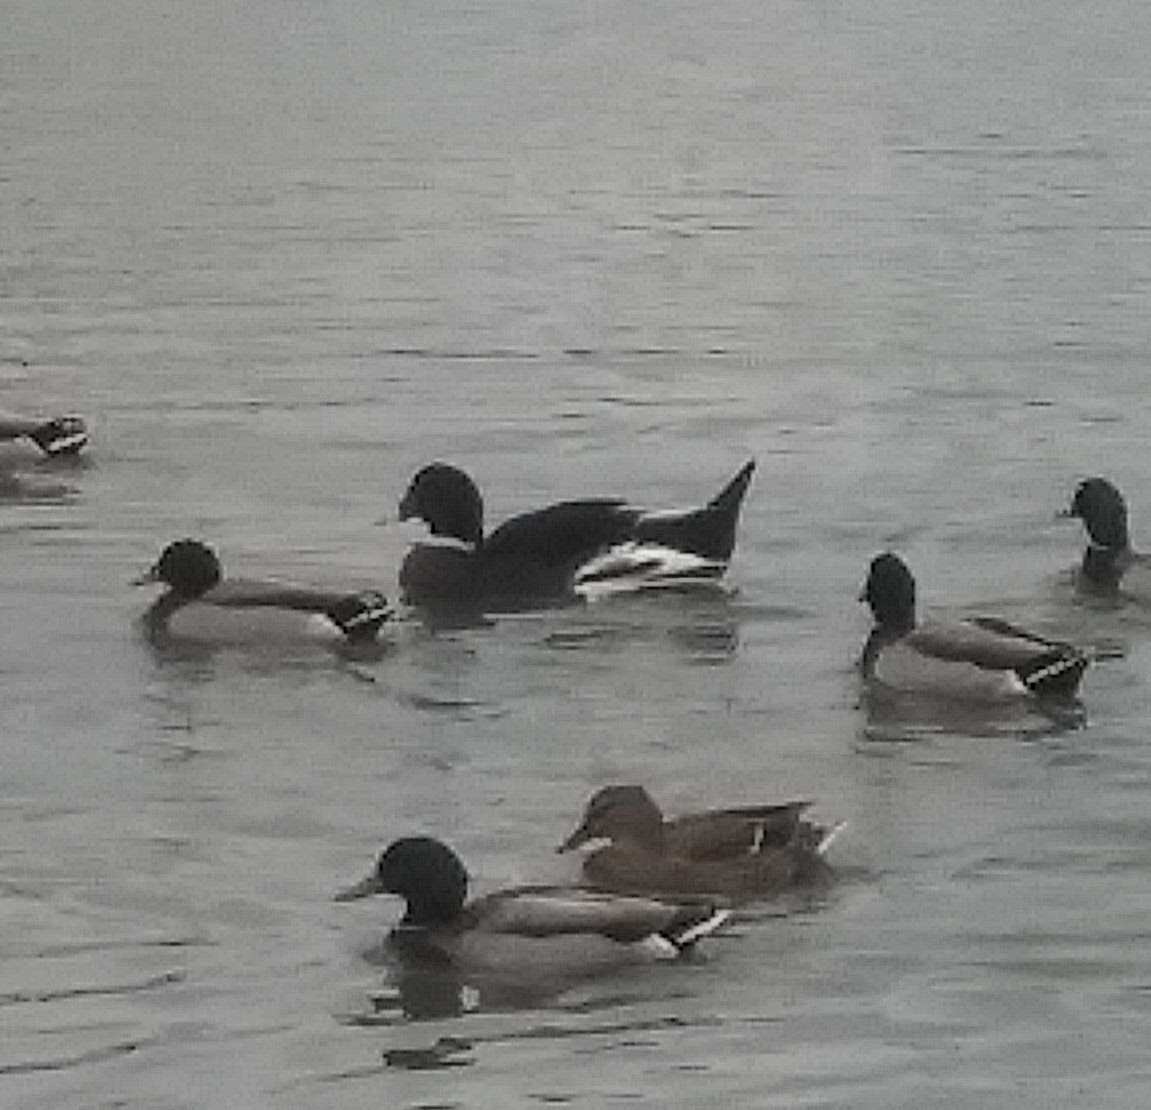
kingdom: Animalia
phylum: Chordata
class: Aves
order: Anseriformes
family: Anatidae
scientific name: Anatidae
